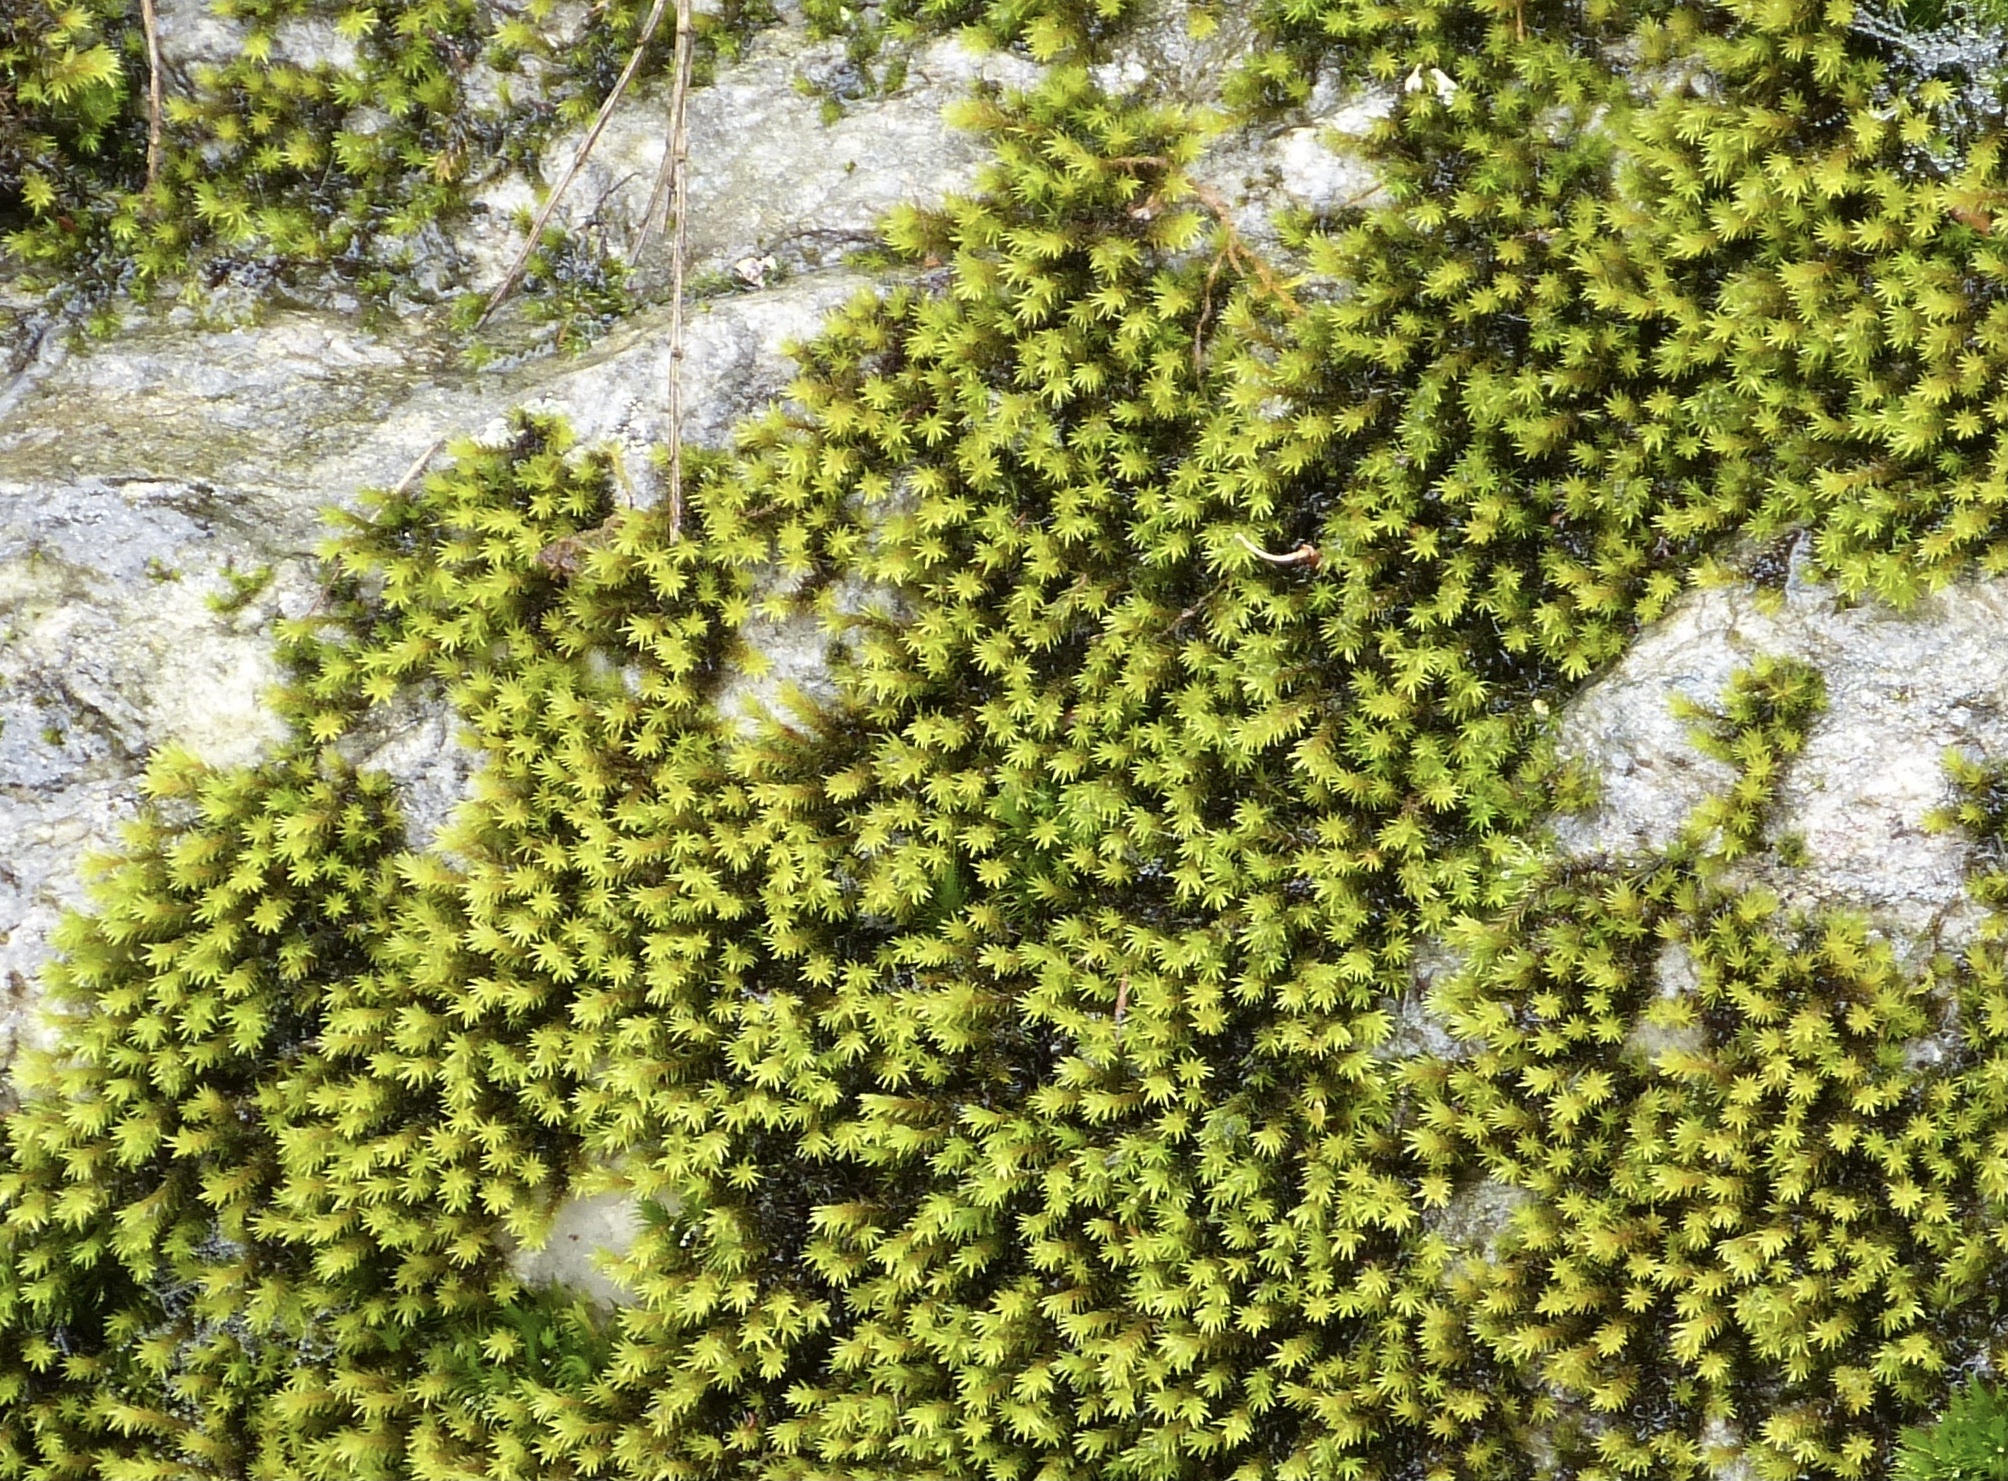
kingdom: Plantae
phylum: Bryophyta
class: Bryopsida
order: Grimmiales
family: Grimmiaceae
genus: Codriophorus
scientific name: Codriophorus aquaticus
